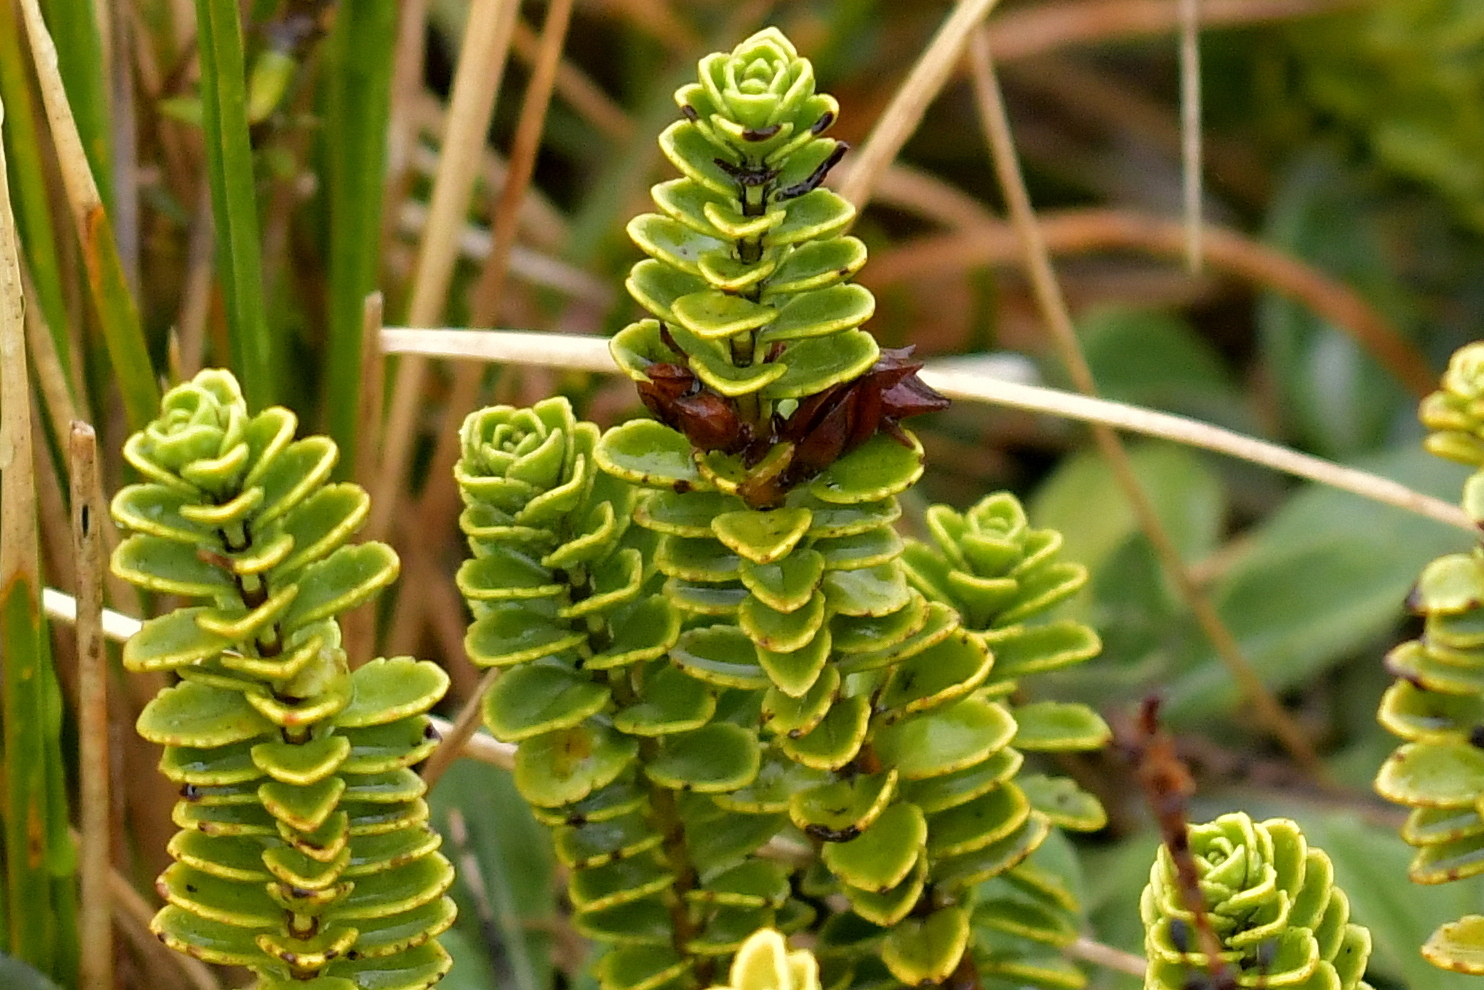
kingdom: Plantae
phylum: Tracheophyta
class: Magnoliopsida
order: Lamiales
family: Plantaginaceae
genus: Veronica
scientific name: Veronica macrantha
